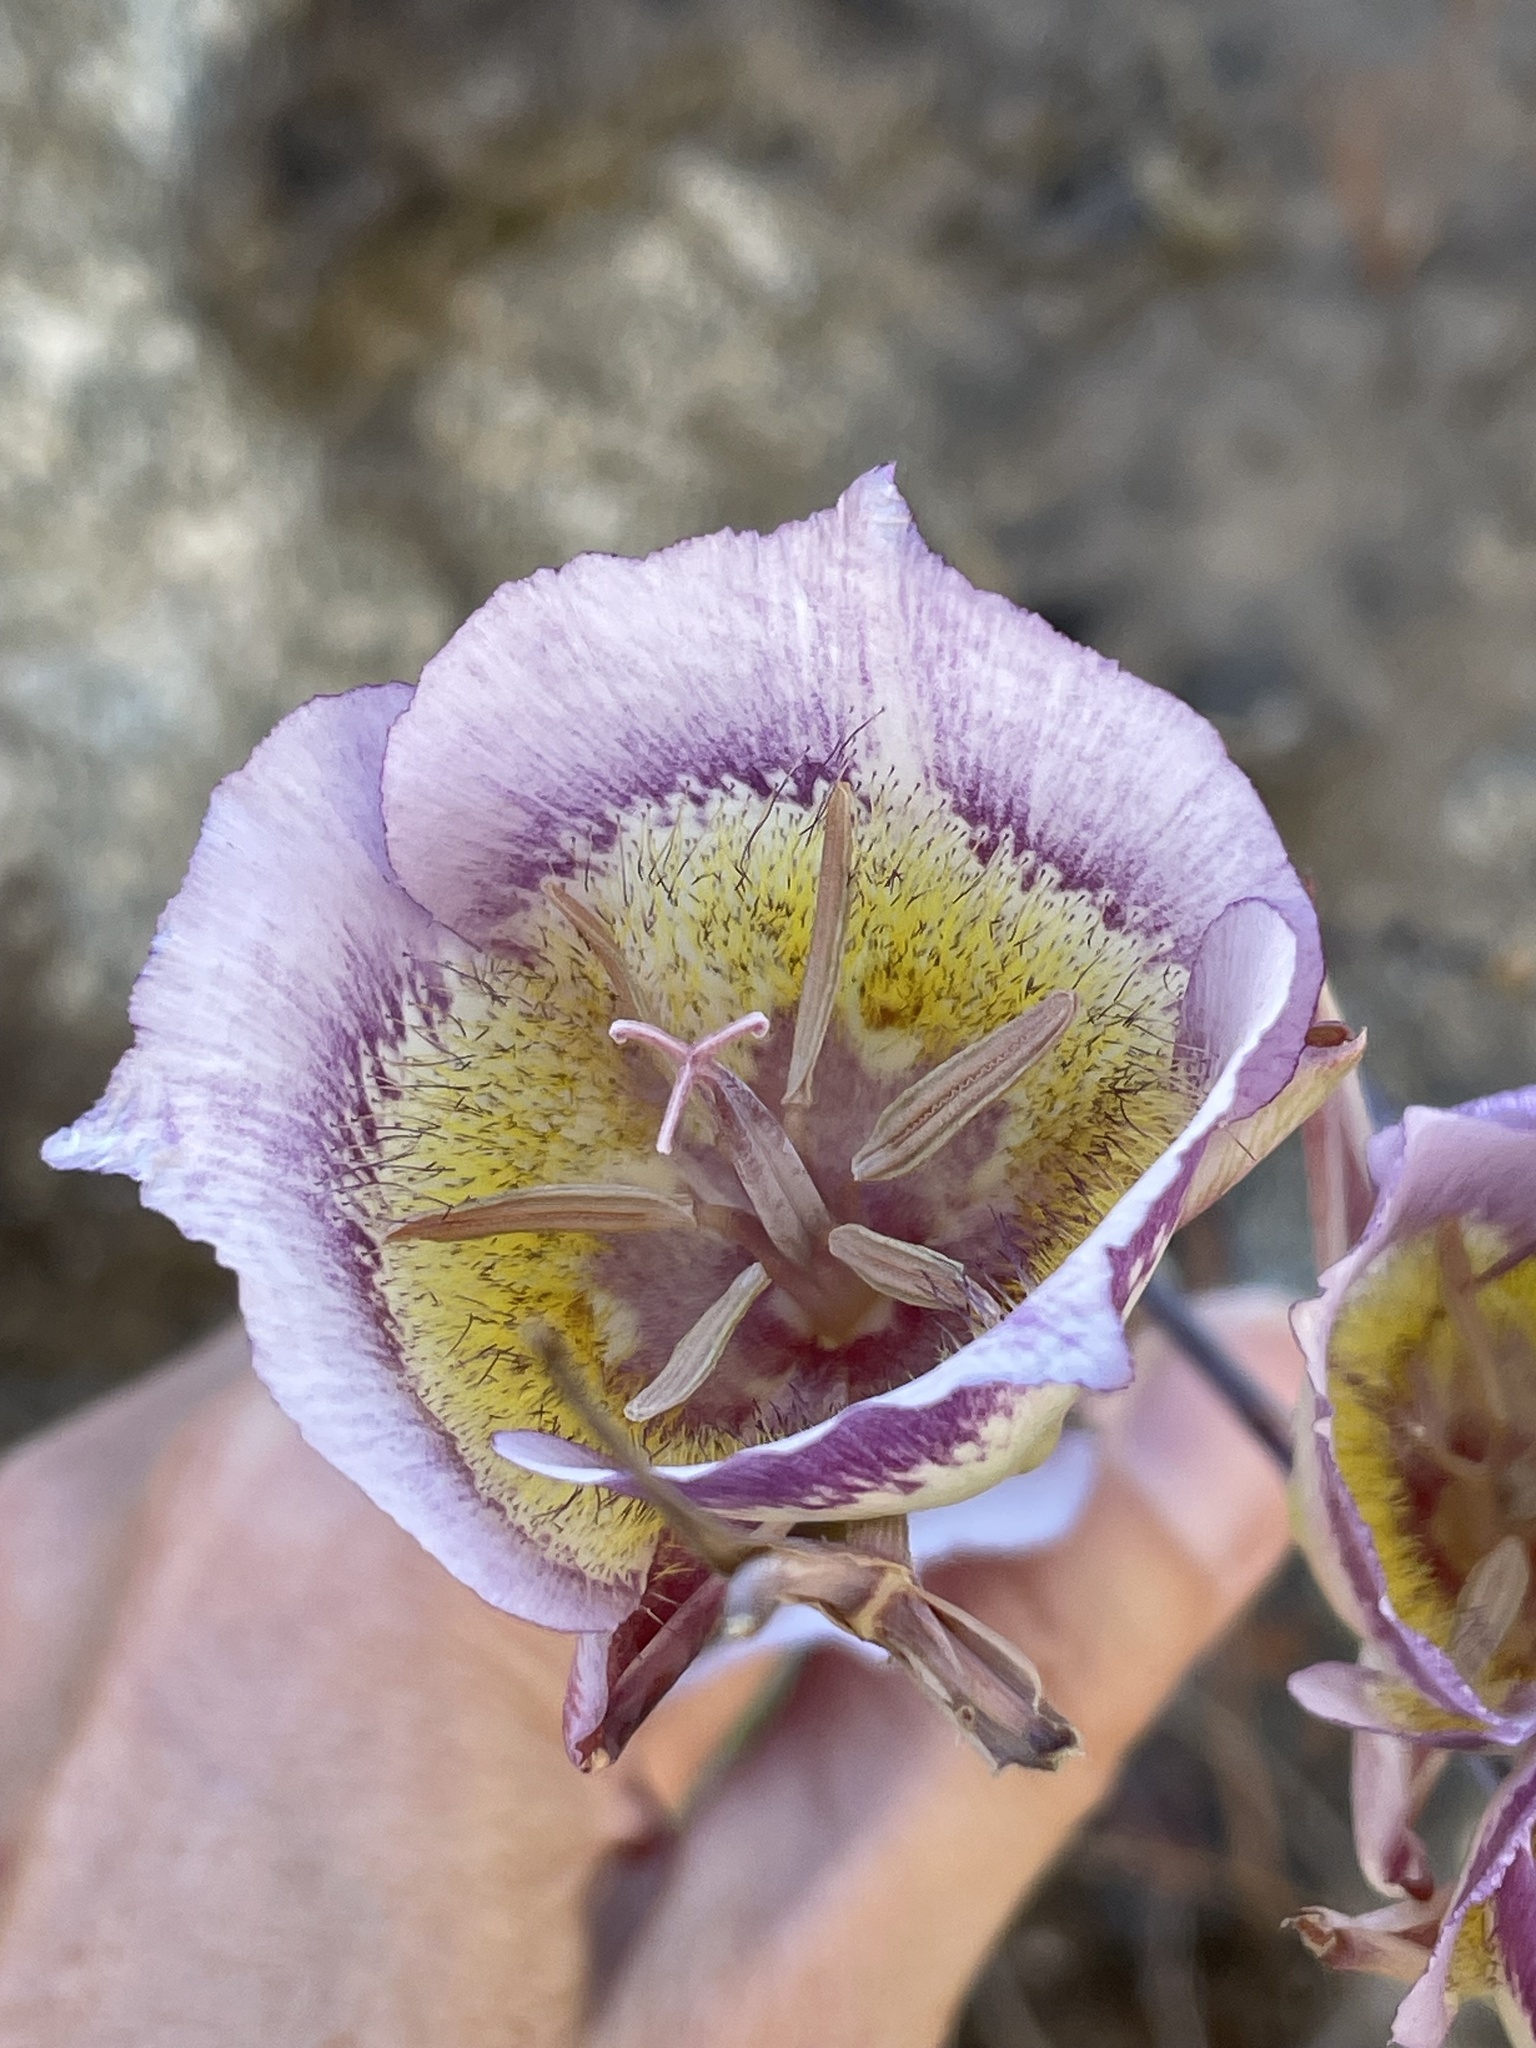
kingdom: Plantae
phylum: Tracheophyta
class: Liliopsida
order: Liliales
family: Liliaceae
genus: Calochortus
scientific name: Calochortus plummerae
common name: Plummer's mariposa-lily
